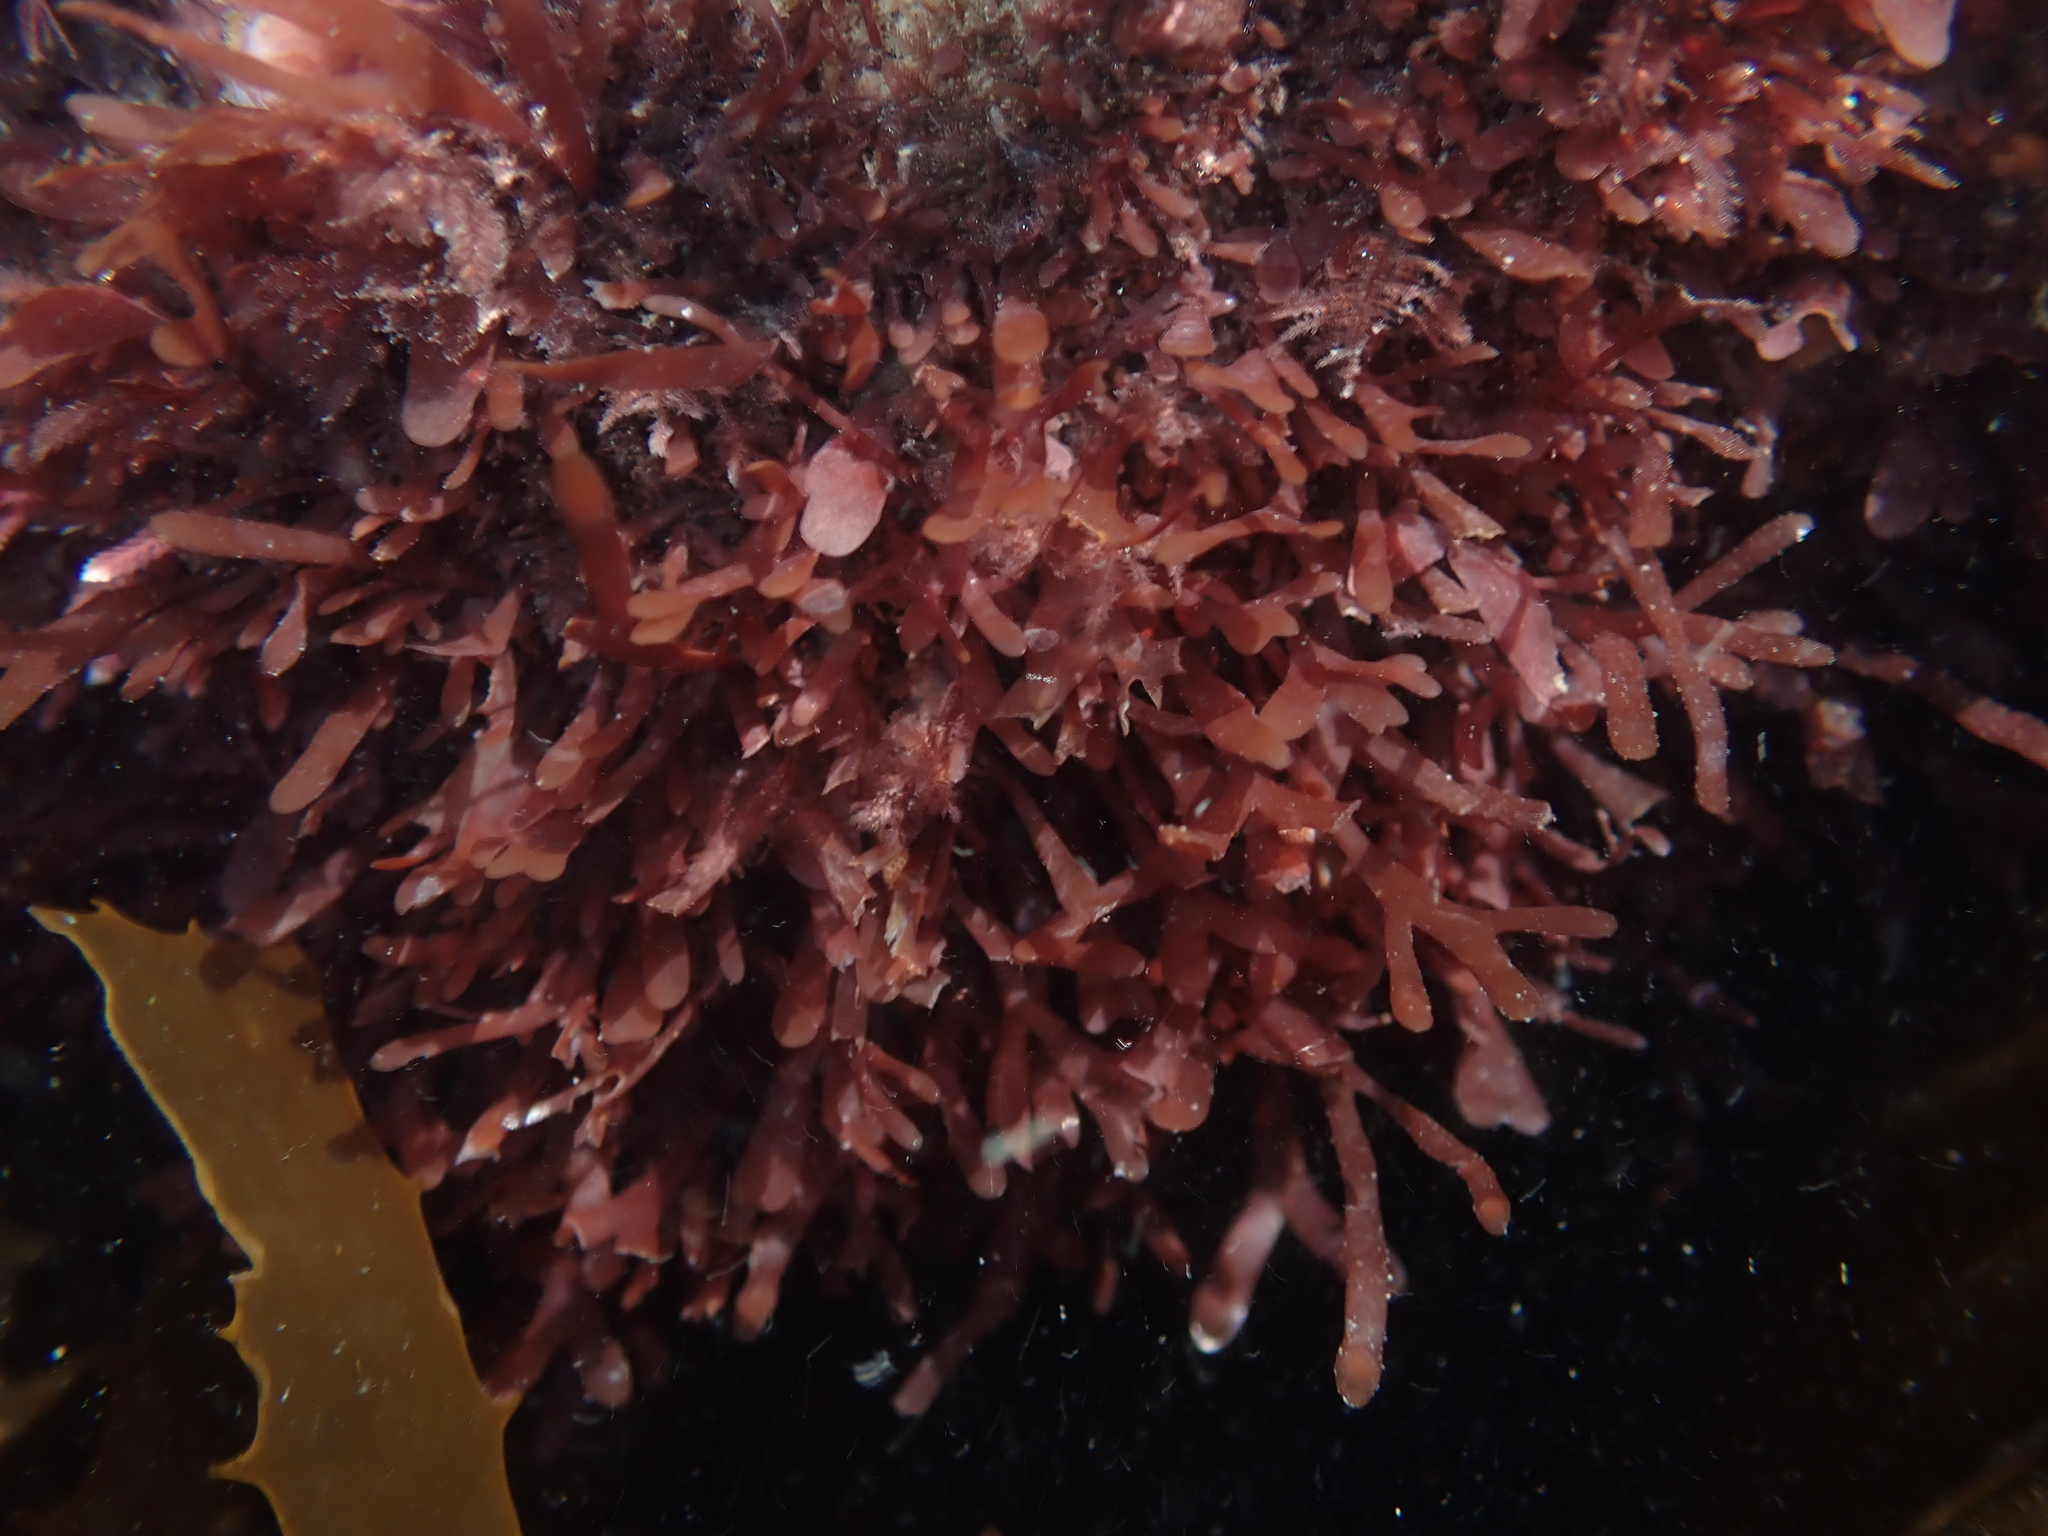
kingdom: Plantae
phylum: Rhodophyta
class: Florideophyceae
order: Rhodymeniales
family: Rhodymeniaceae
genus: Rhodymenia
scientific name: Rhodymenia
